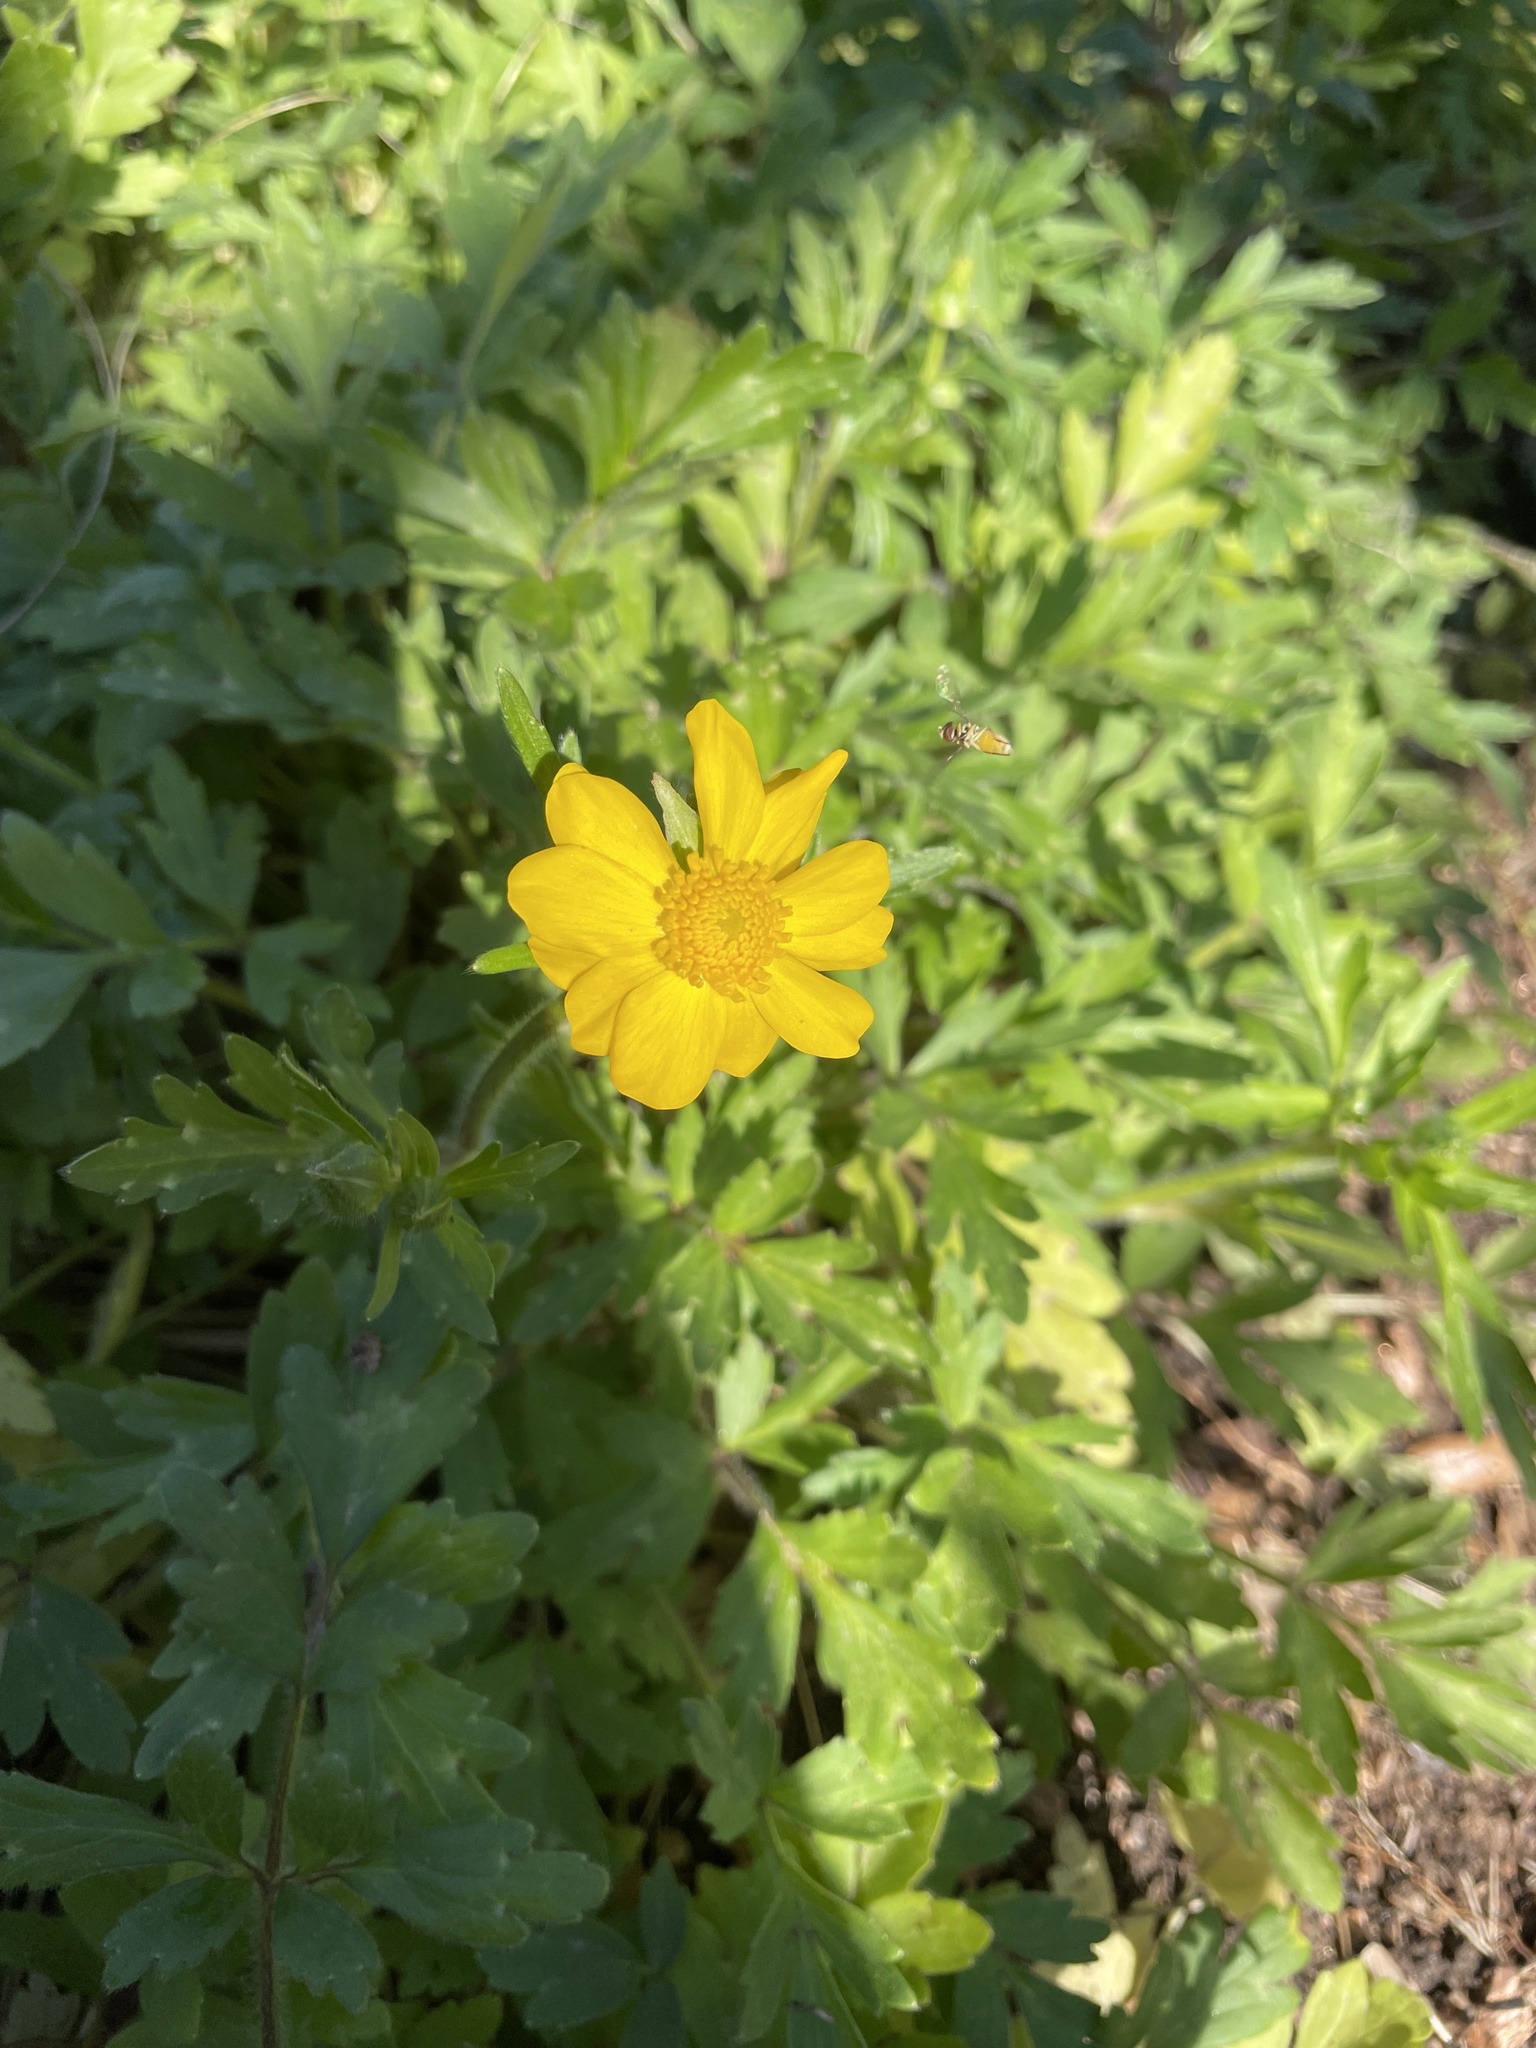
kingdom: Plantae
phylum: Tracheophyta
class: Magnoliopsida
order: Ranunculales
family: Ranunculaceae
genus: Ranunculus
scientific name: Ranunculus macranthus
